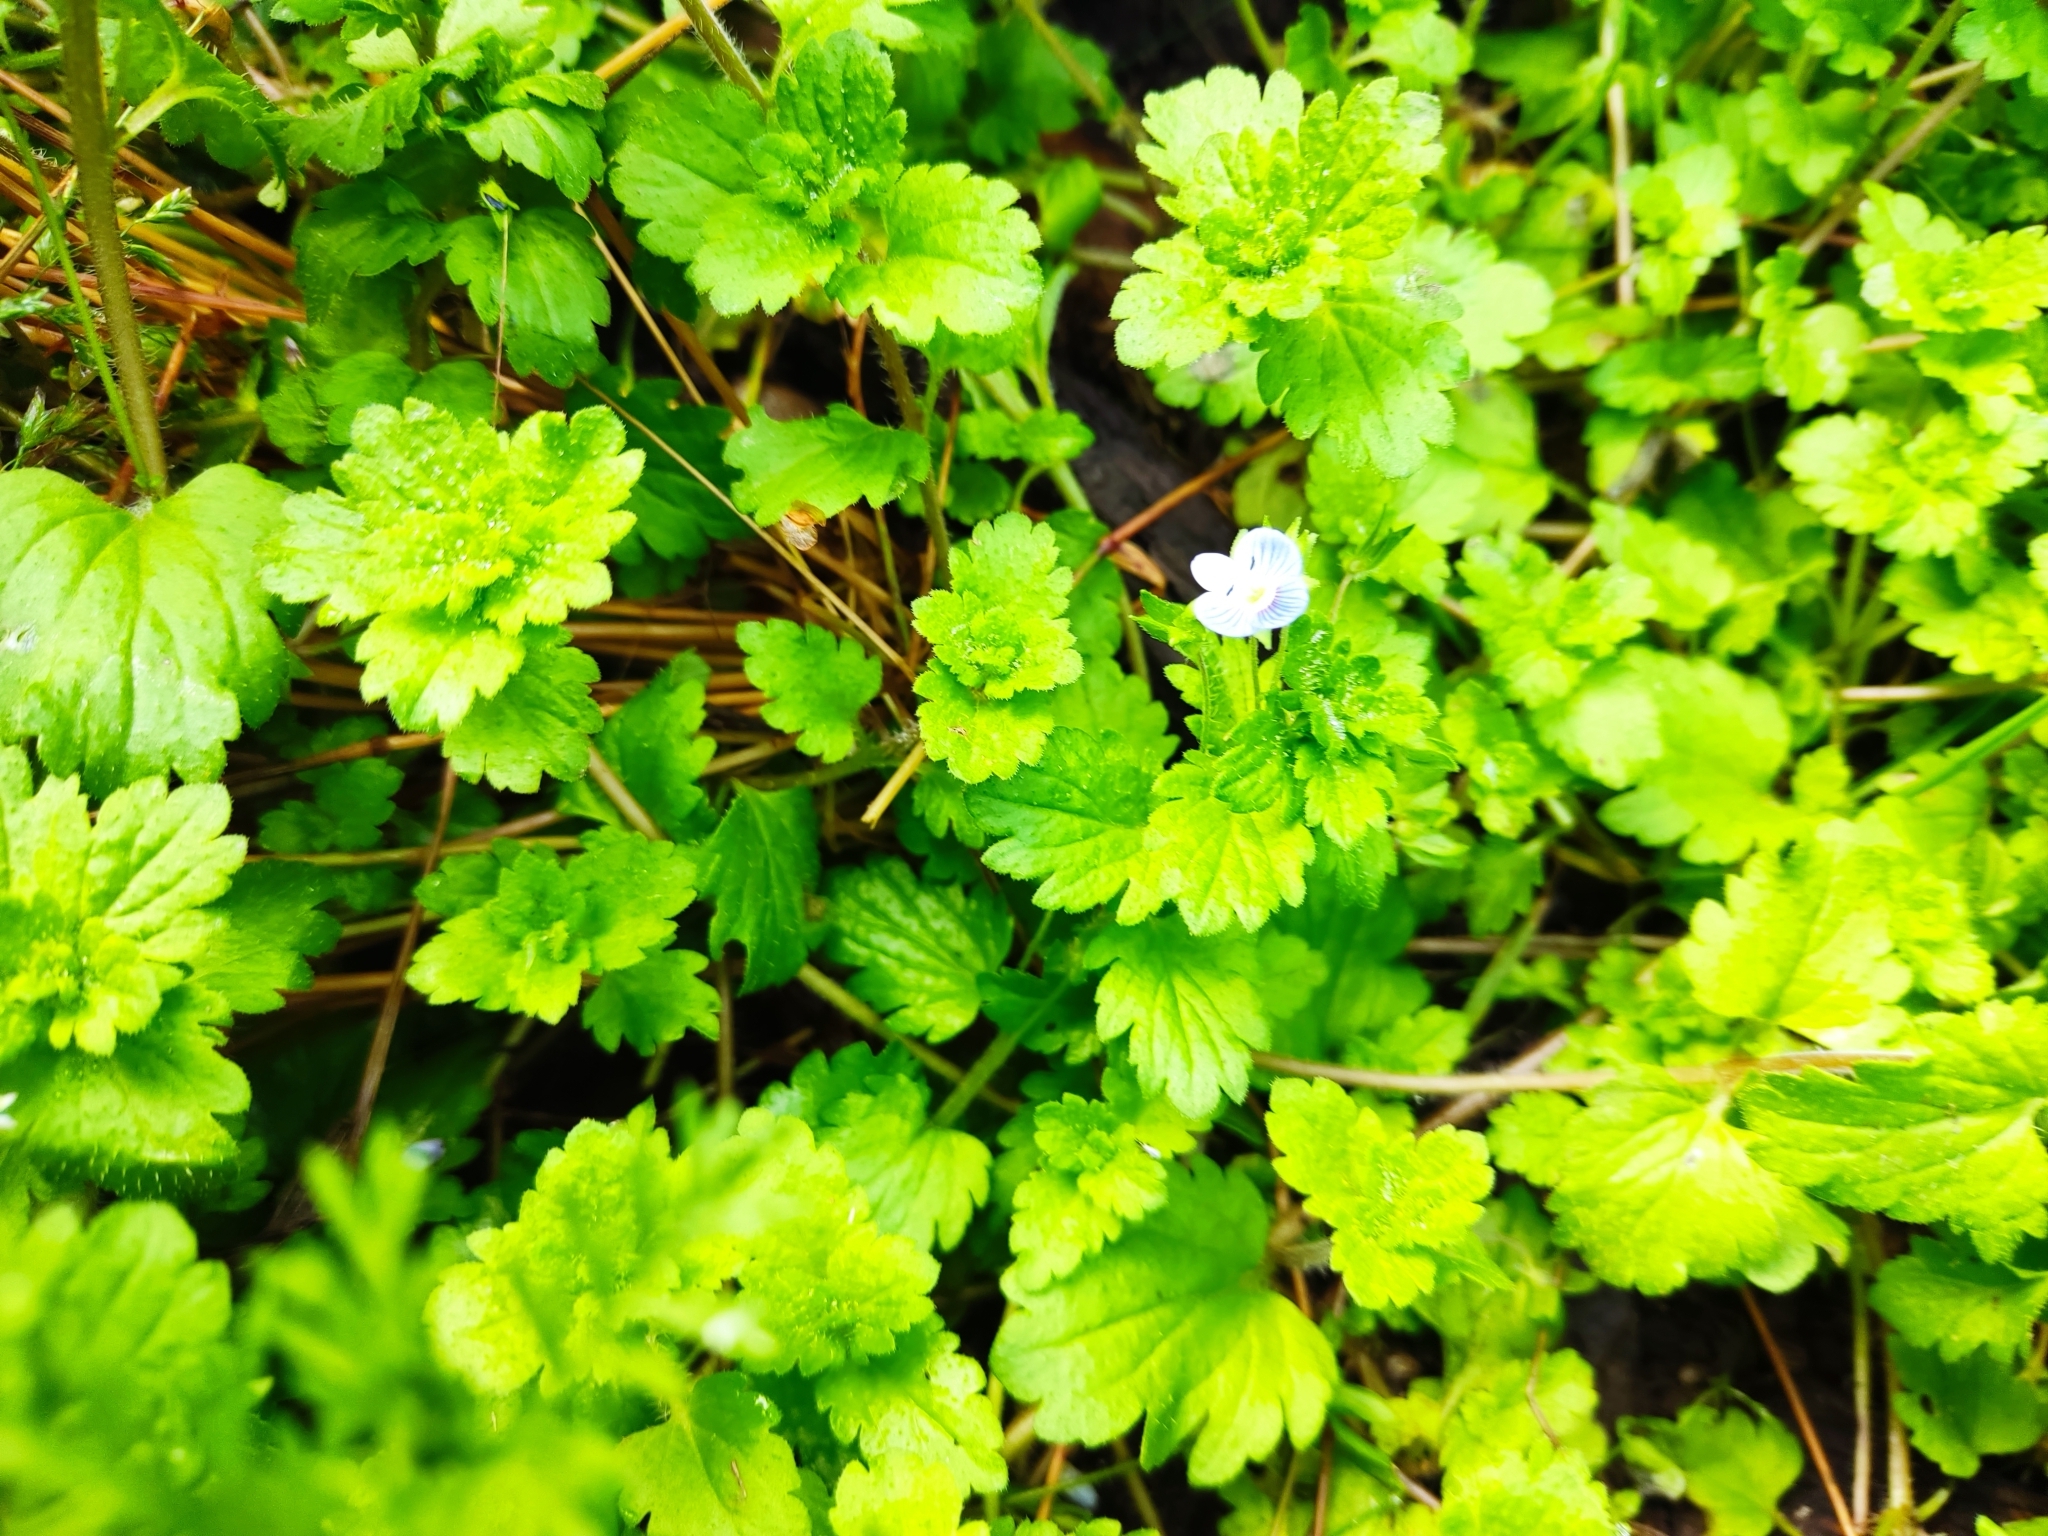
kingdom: Plantae
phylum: Tracheophyta
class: Magnoliopsida
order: Lamiales
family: Plantaginaceae
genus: Veronica
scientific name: Veronica persica
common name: Common field-speedwell
